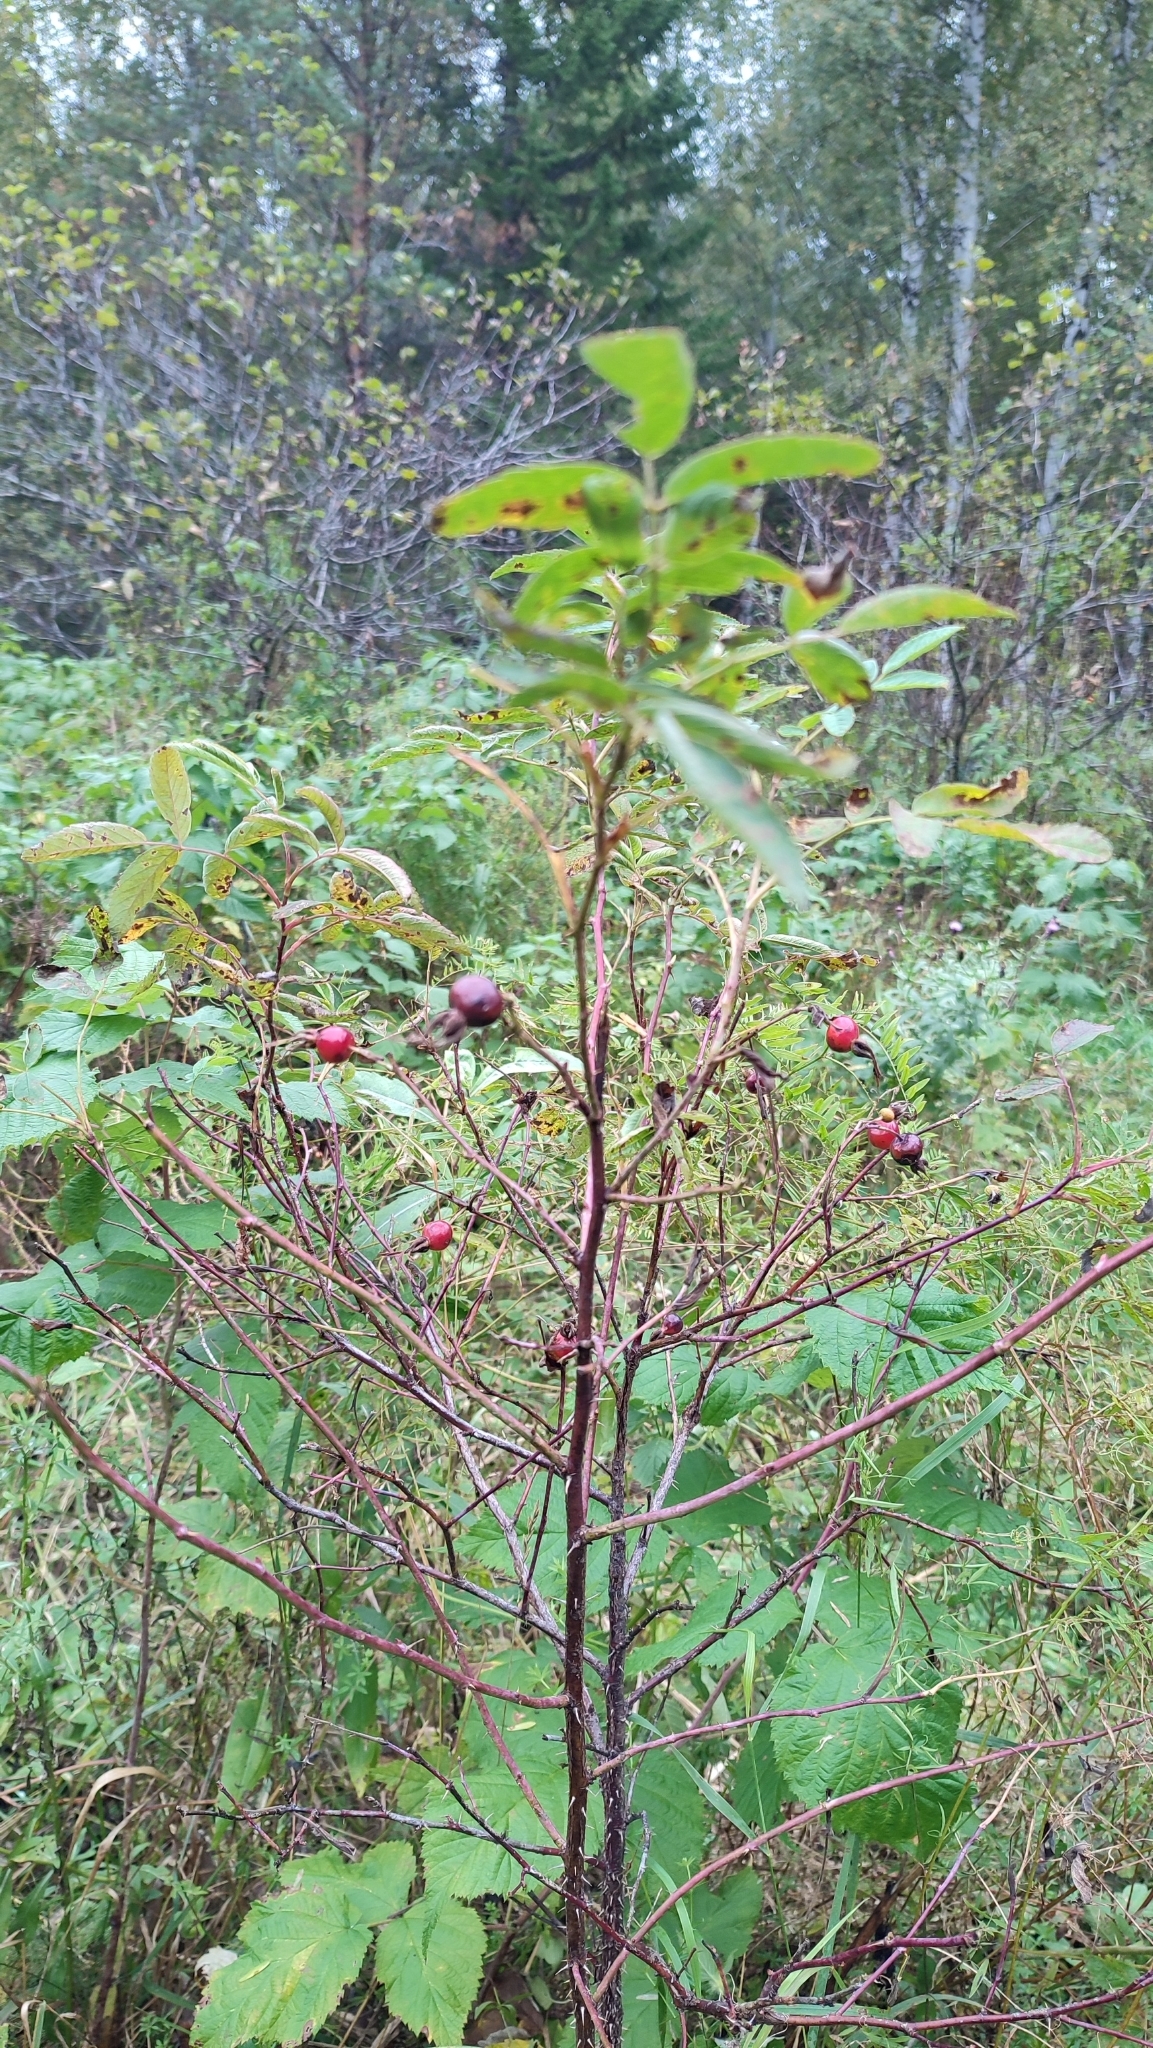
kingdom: Plantae
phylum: Tracheophyta
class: Magnoliopsida
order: Rosales
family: Rosaceae
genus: Rosa
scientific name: Rosa majalis
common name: Cinnamon rose
